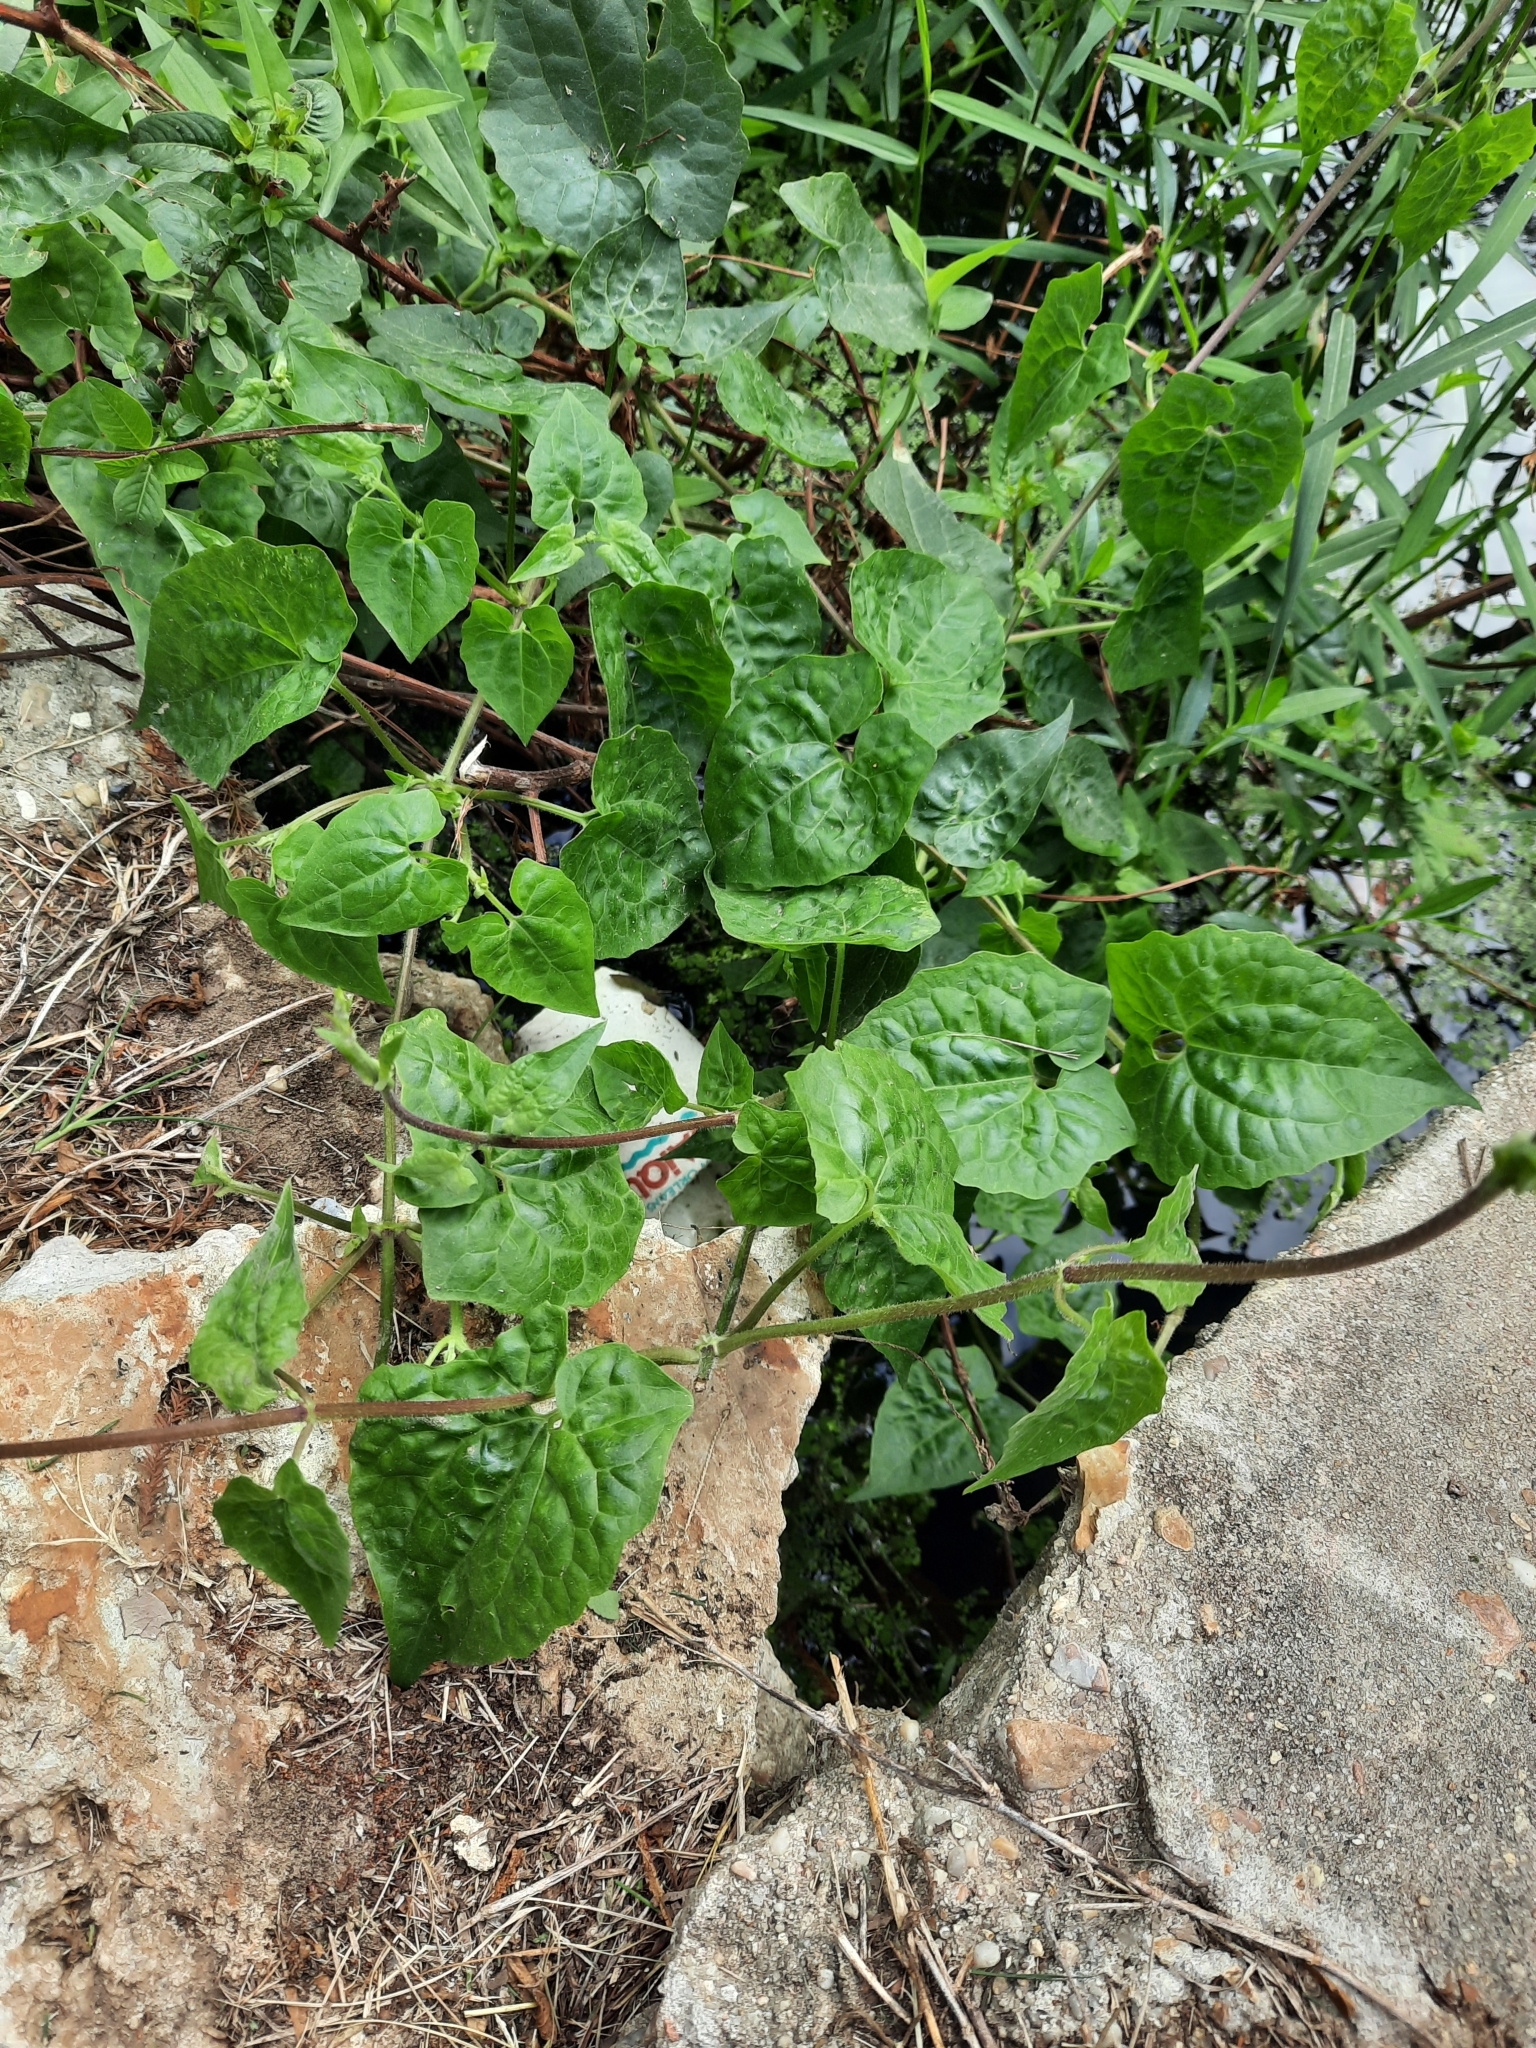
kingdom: Plantae
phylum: Tracheophyta
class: Magnoliopsida
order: Asterales
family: Asteraceae
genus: Mikania
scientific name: Mikania scandens
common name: Climbing hempvine
